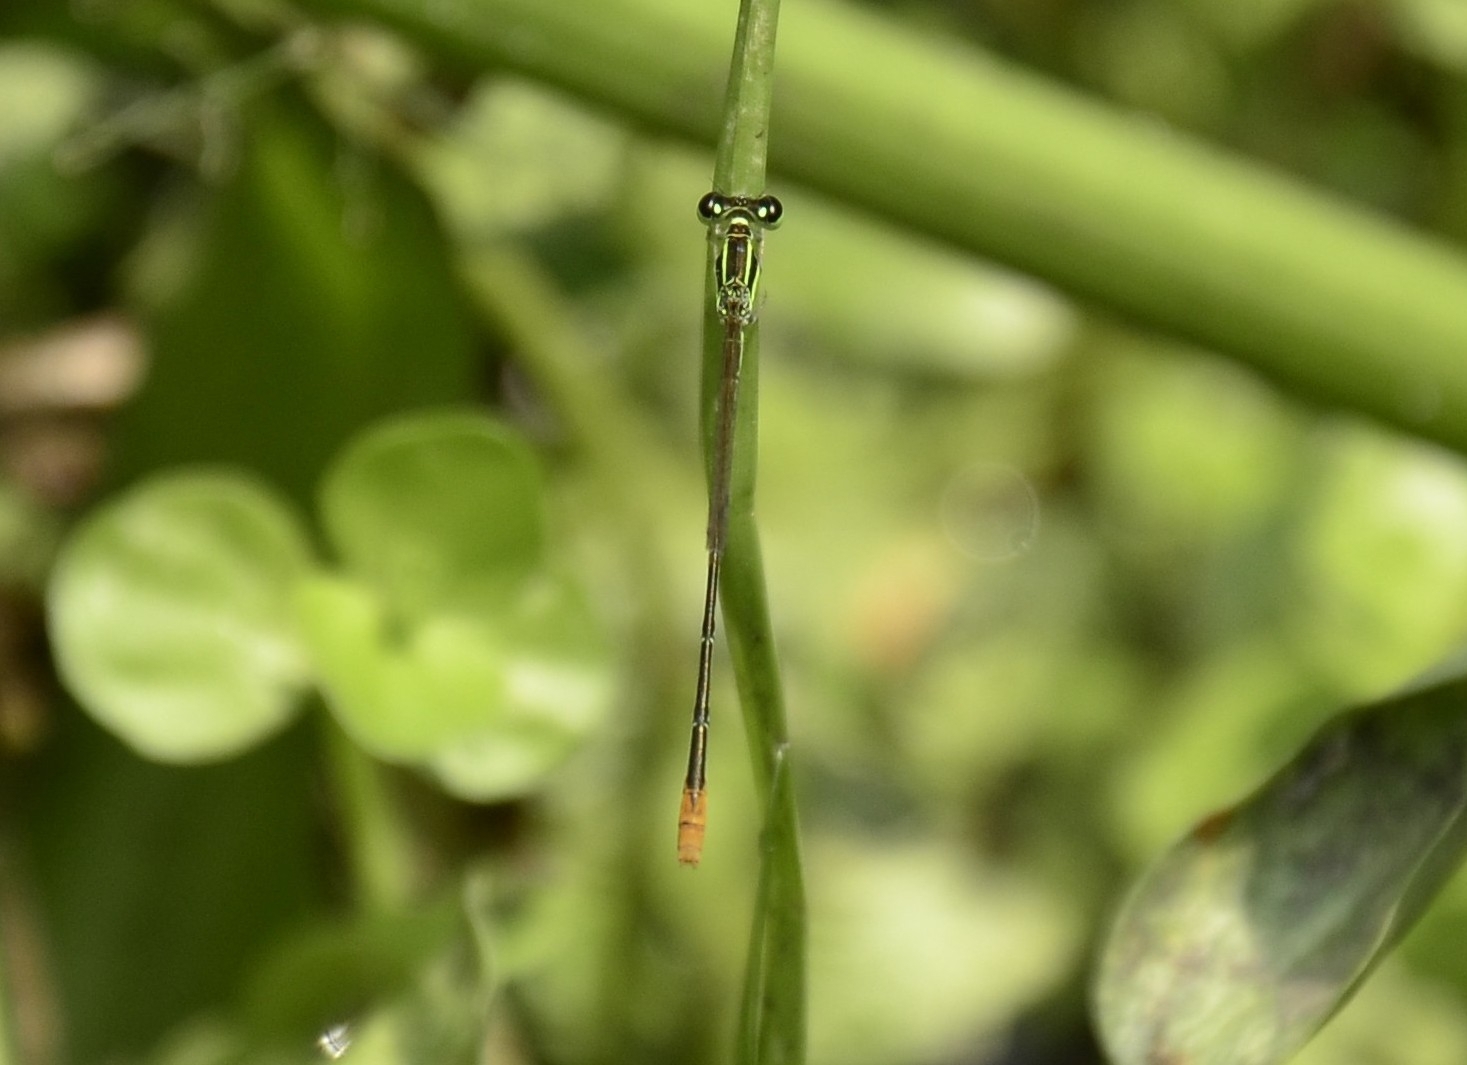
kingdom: Animalia
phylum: Arthropoda
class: Insecta
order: Odonata
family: Coenagrionidae
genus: Agriocnemis
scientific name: Agriocnemis pygmaea
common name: Pygmy wisp
